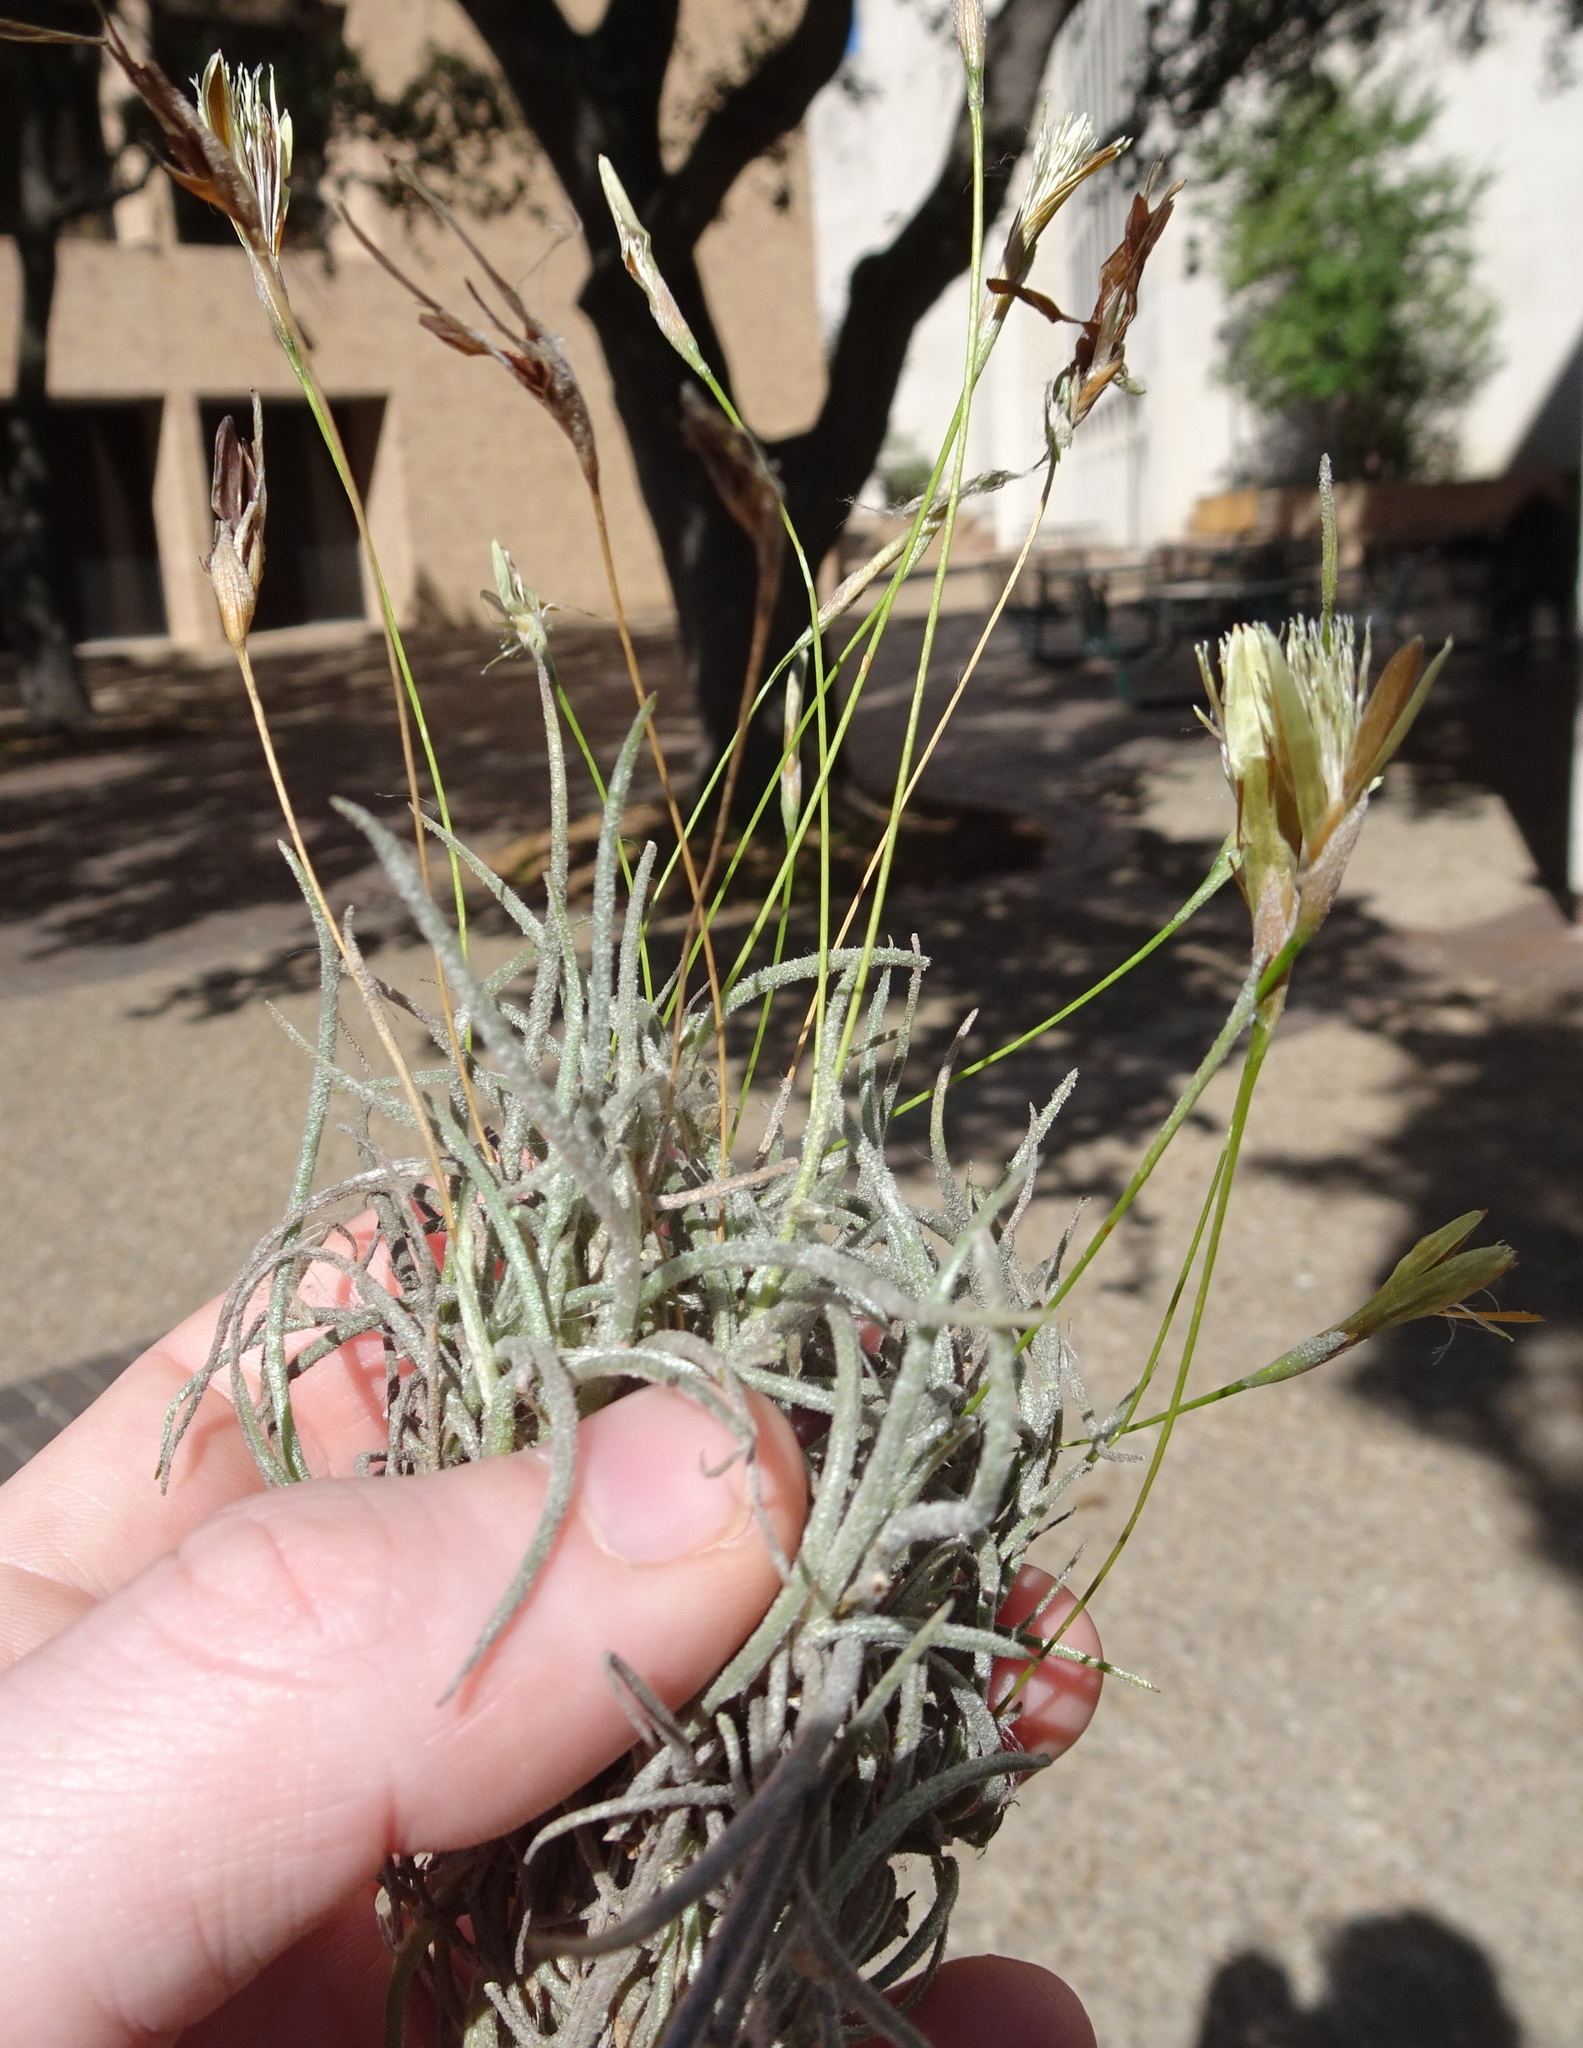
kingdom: Plantae
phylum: Tracheophyta
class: Liliopsida
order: Poales
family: Bromeliaceae
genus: Tillandsia
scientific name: Tillandsia recurvata
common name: Small ballmoss
